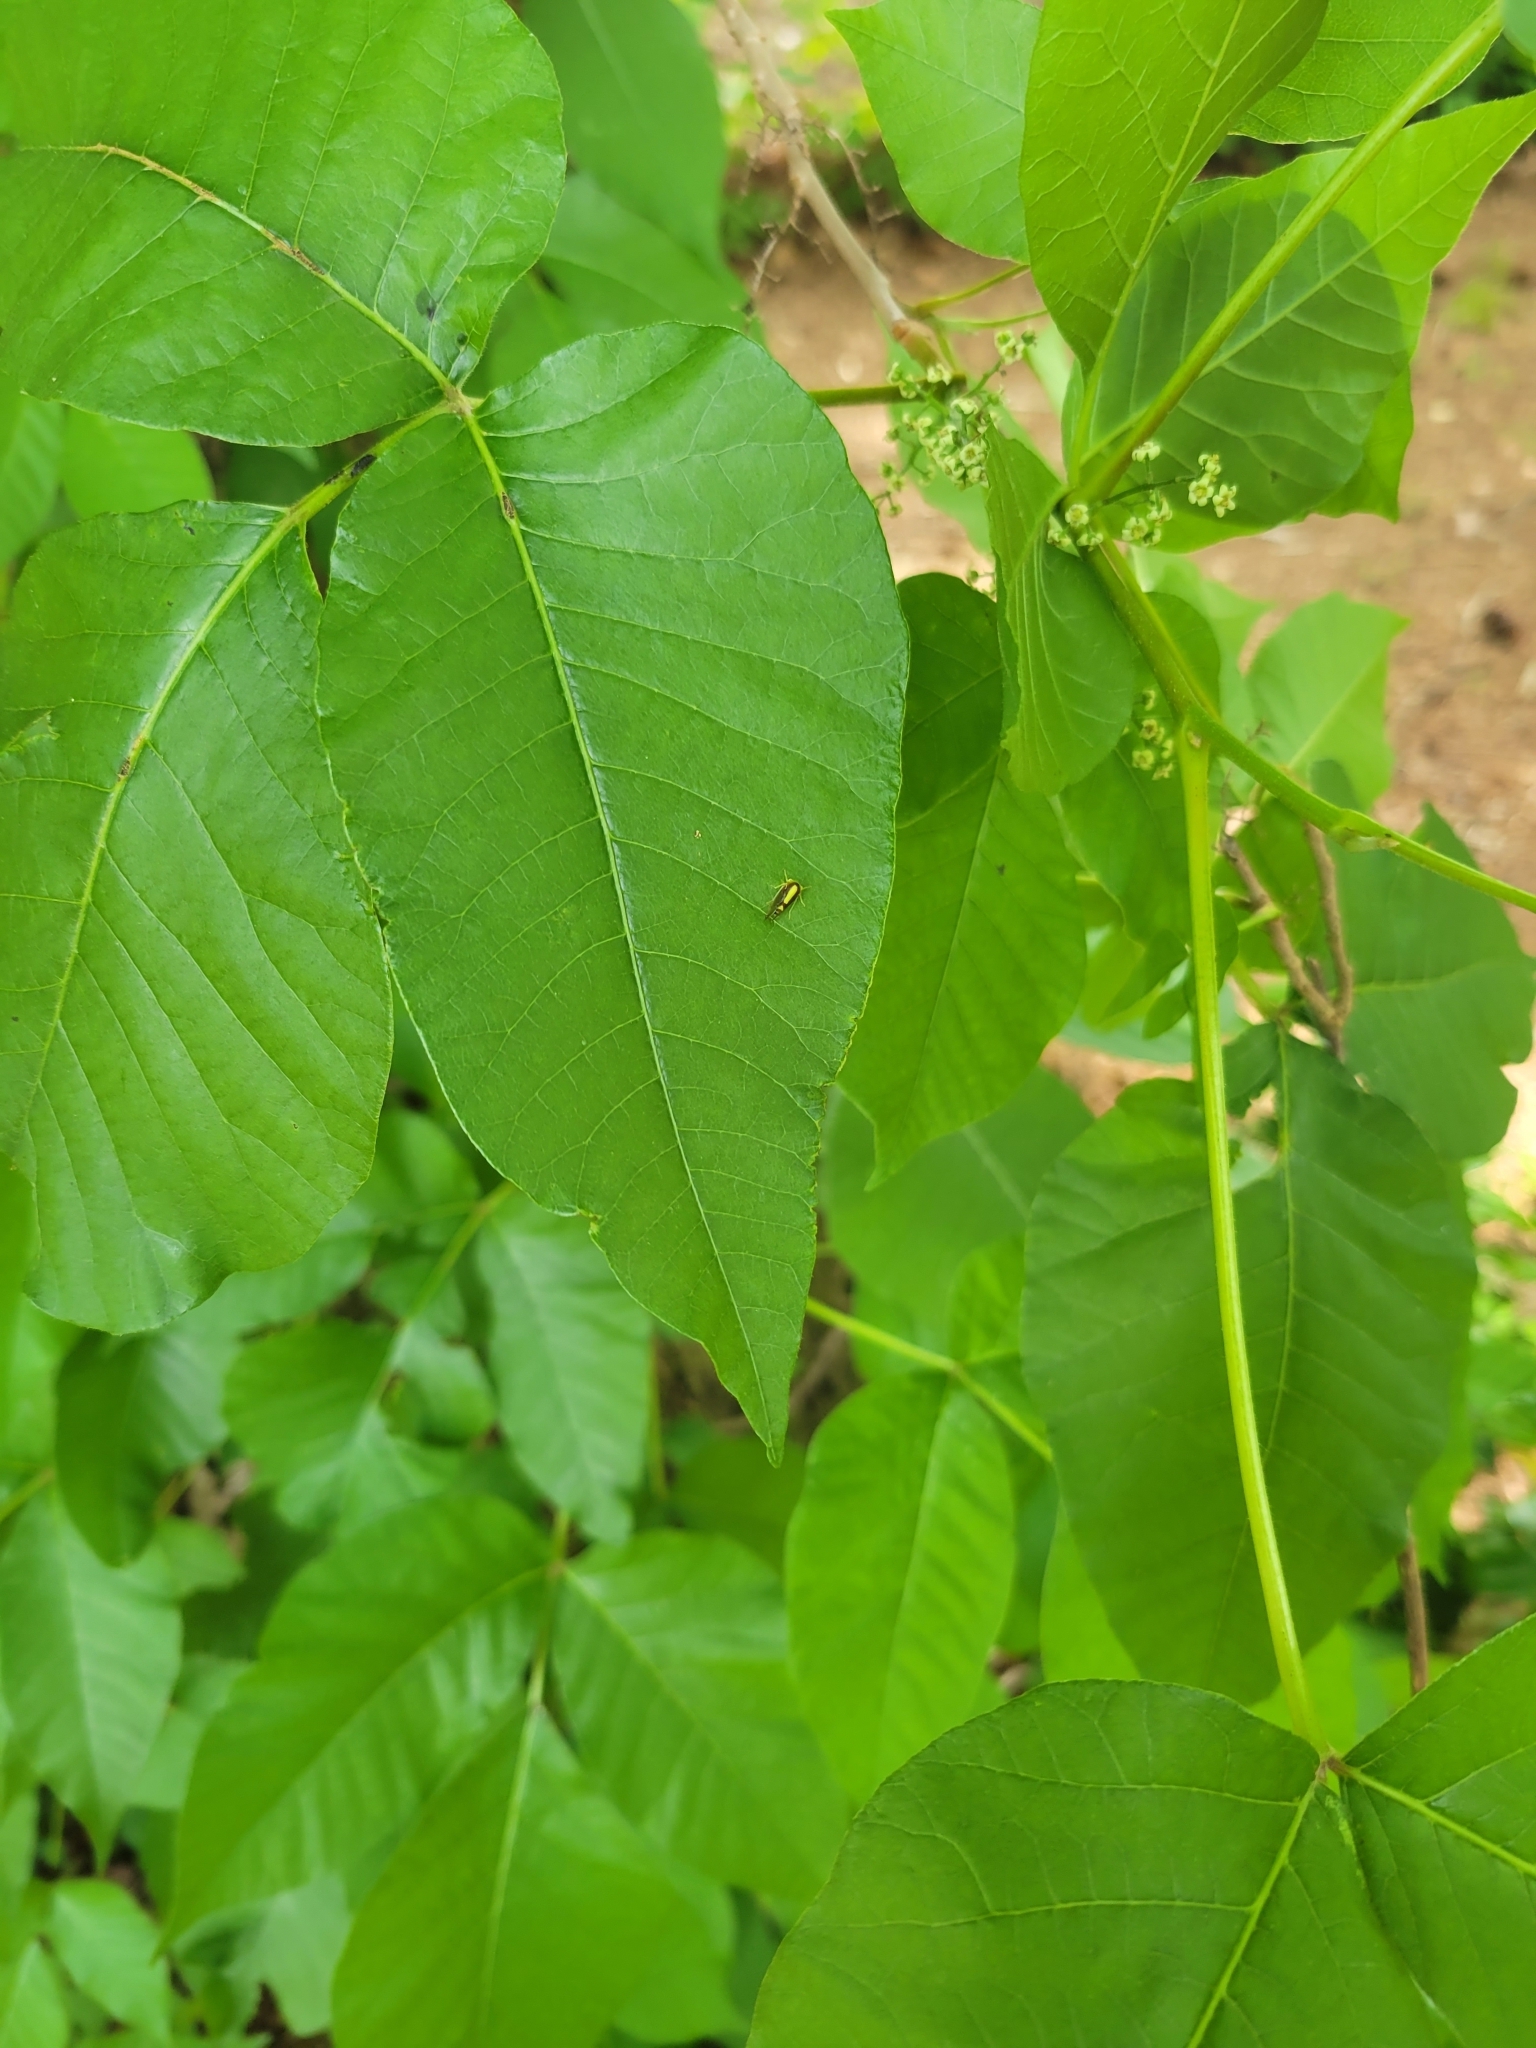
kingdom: Animalia
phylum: Arthropoda
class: Insecta
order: Hemiptera
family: Membracidae
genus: Atymna
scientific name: Atymna querci
